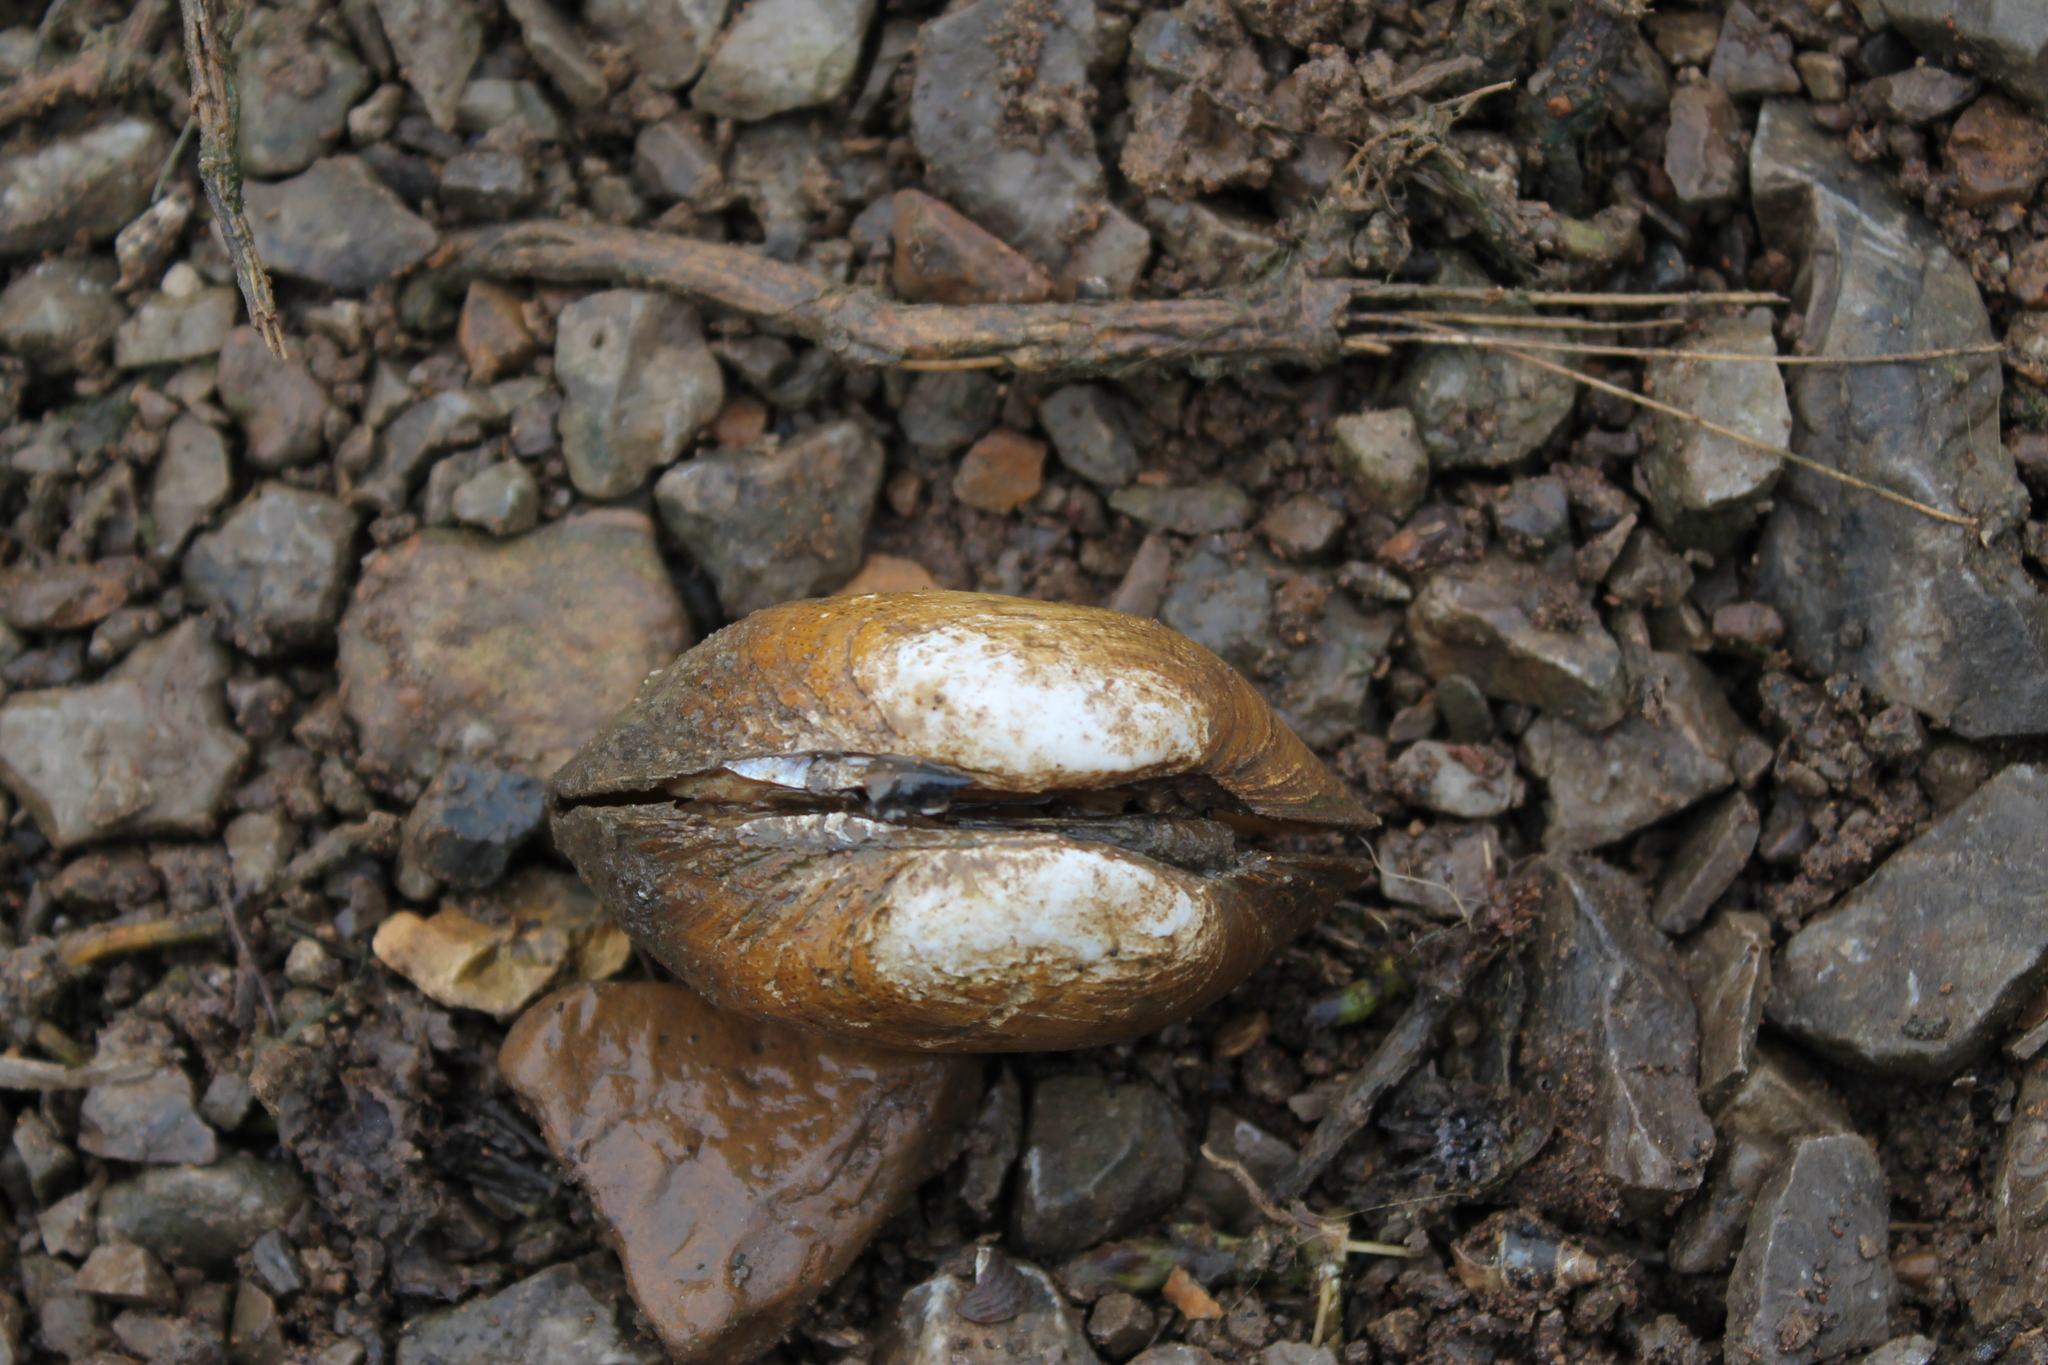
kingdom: Animalia
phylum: Mollusca
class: Bivalvia
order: Unionida
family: Unionidae
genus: Epioblasma
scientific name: Epioblasma brevidens
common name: Cumberlandian combshell
